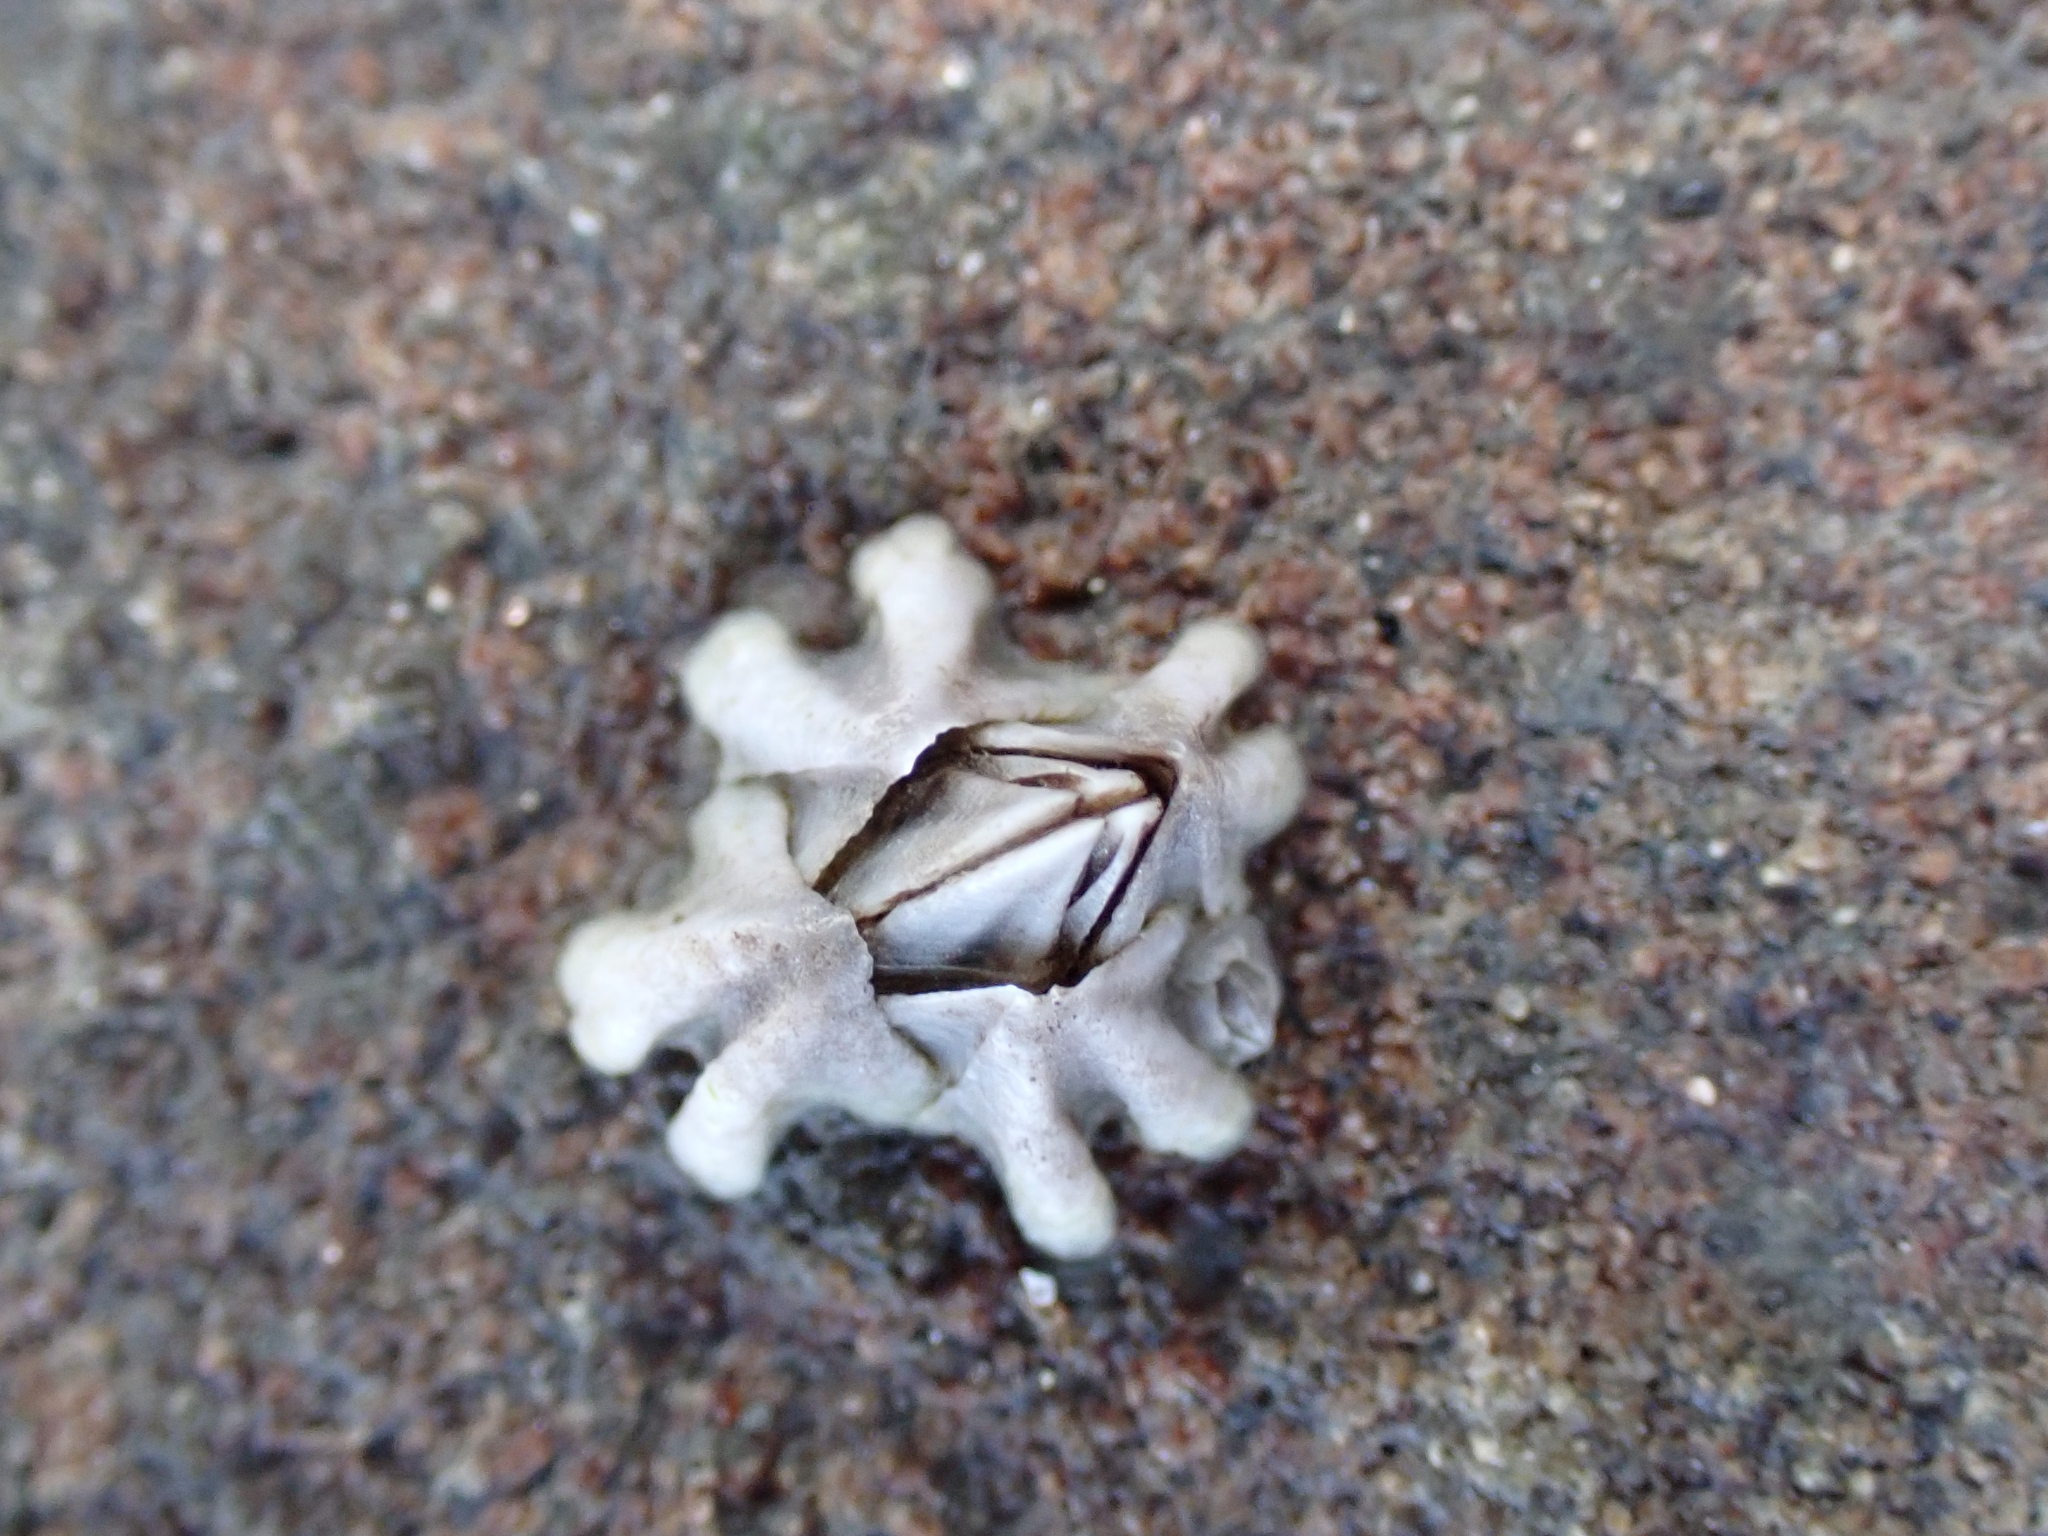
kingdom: Animalia
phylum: Arthropoda
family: Elminiidae
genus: Austrominius
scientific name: Austrominius modestus
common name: Australasian barnacle
